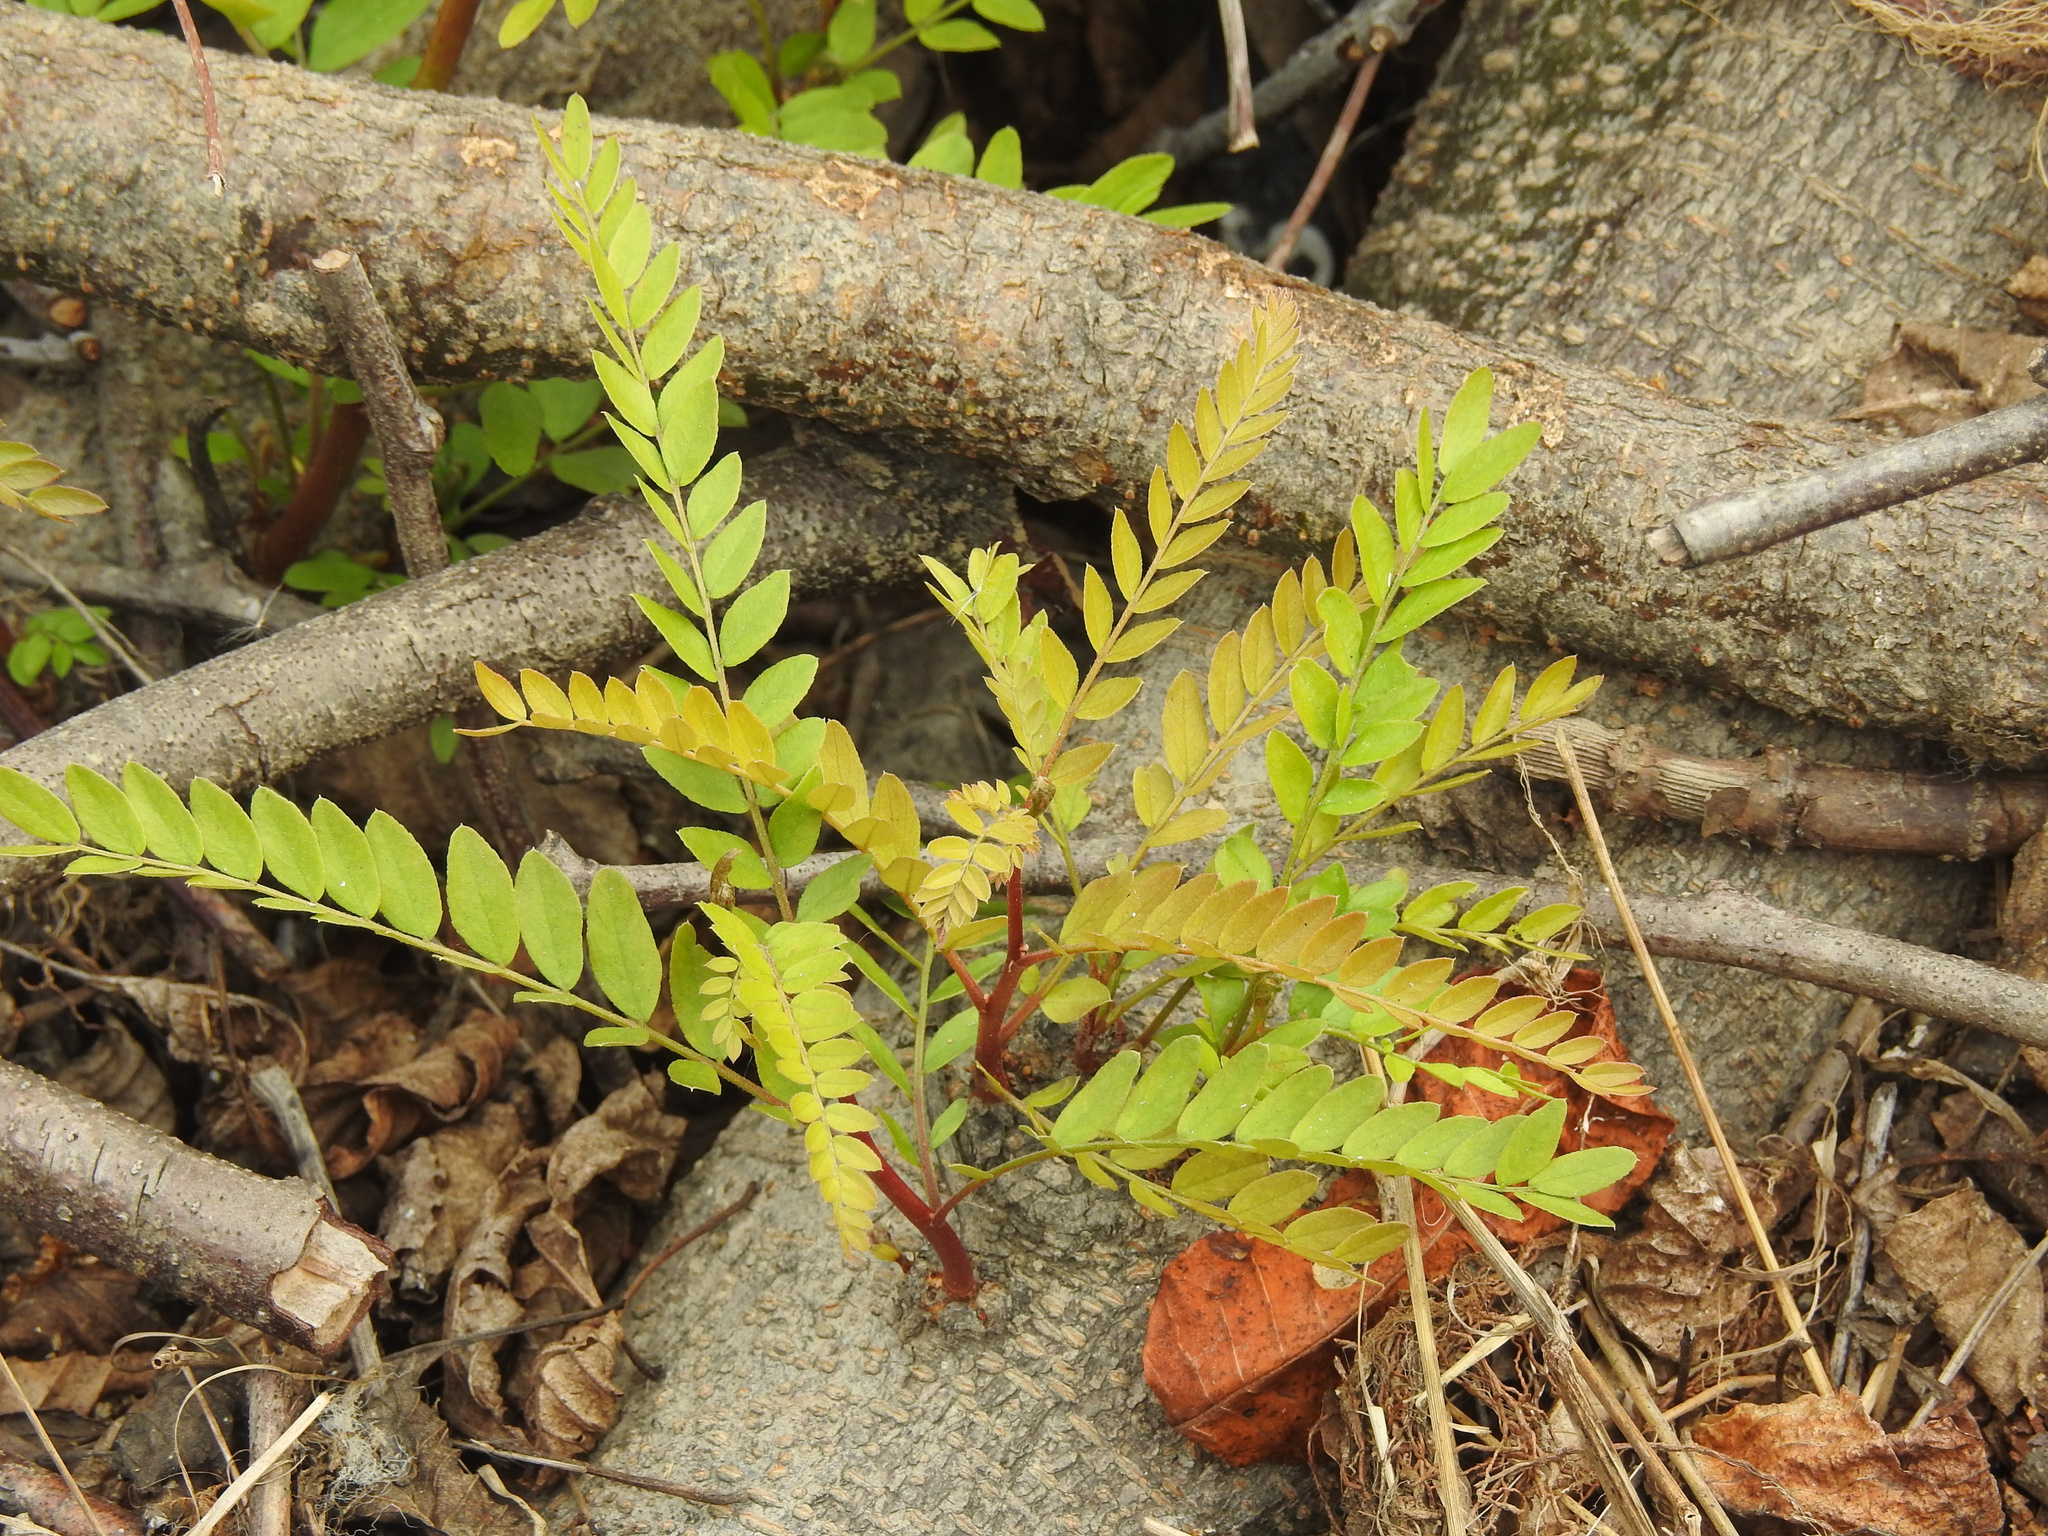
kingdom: Plantae
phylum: Tracheophyta
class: Magnoliopsida
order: Fabales
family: Fabaceae
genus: Gleditsia
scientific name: Gleditsia triacanthos
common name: Common honeylocust
